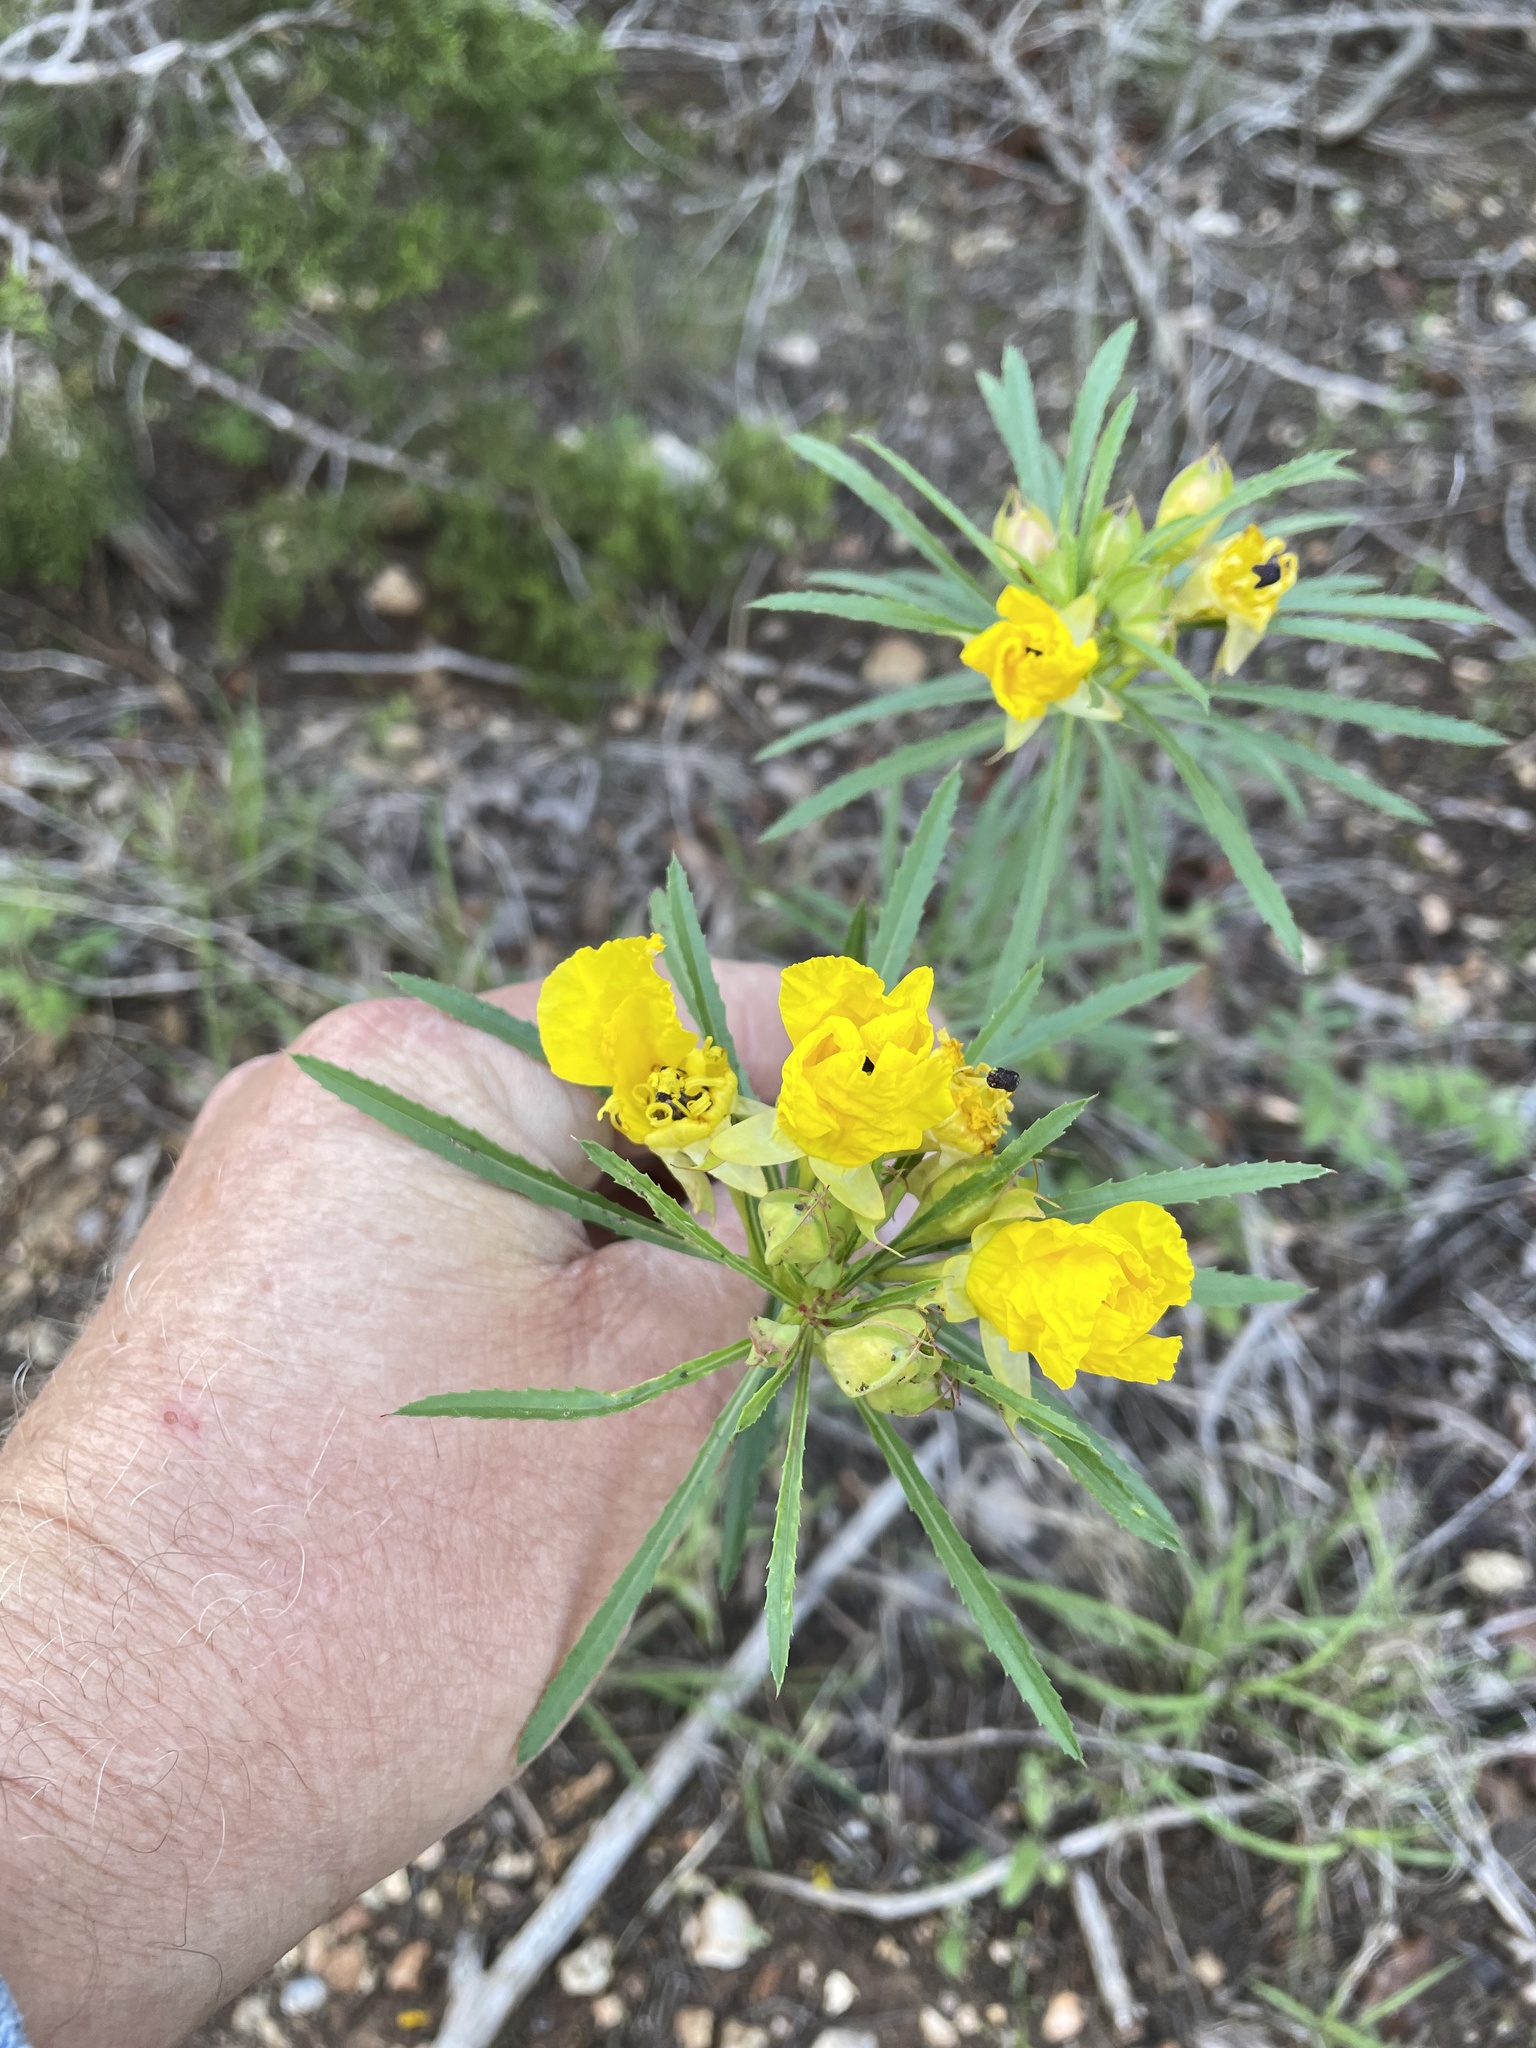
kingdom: Plantae
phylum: Tracheophyta
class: Magnoliopsida
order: Myrtales
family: Onagraceae
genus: Oenothera
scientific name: Oenothera
